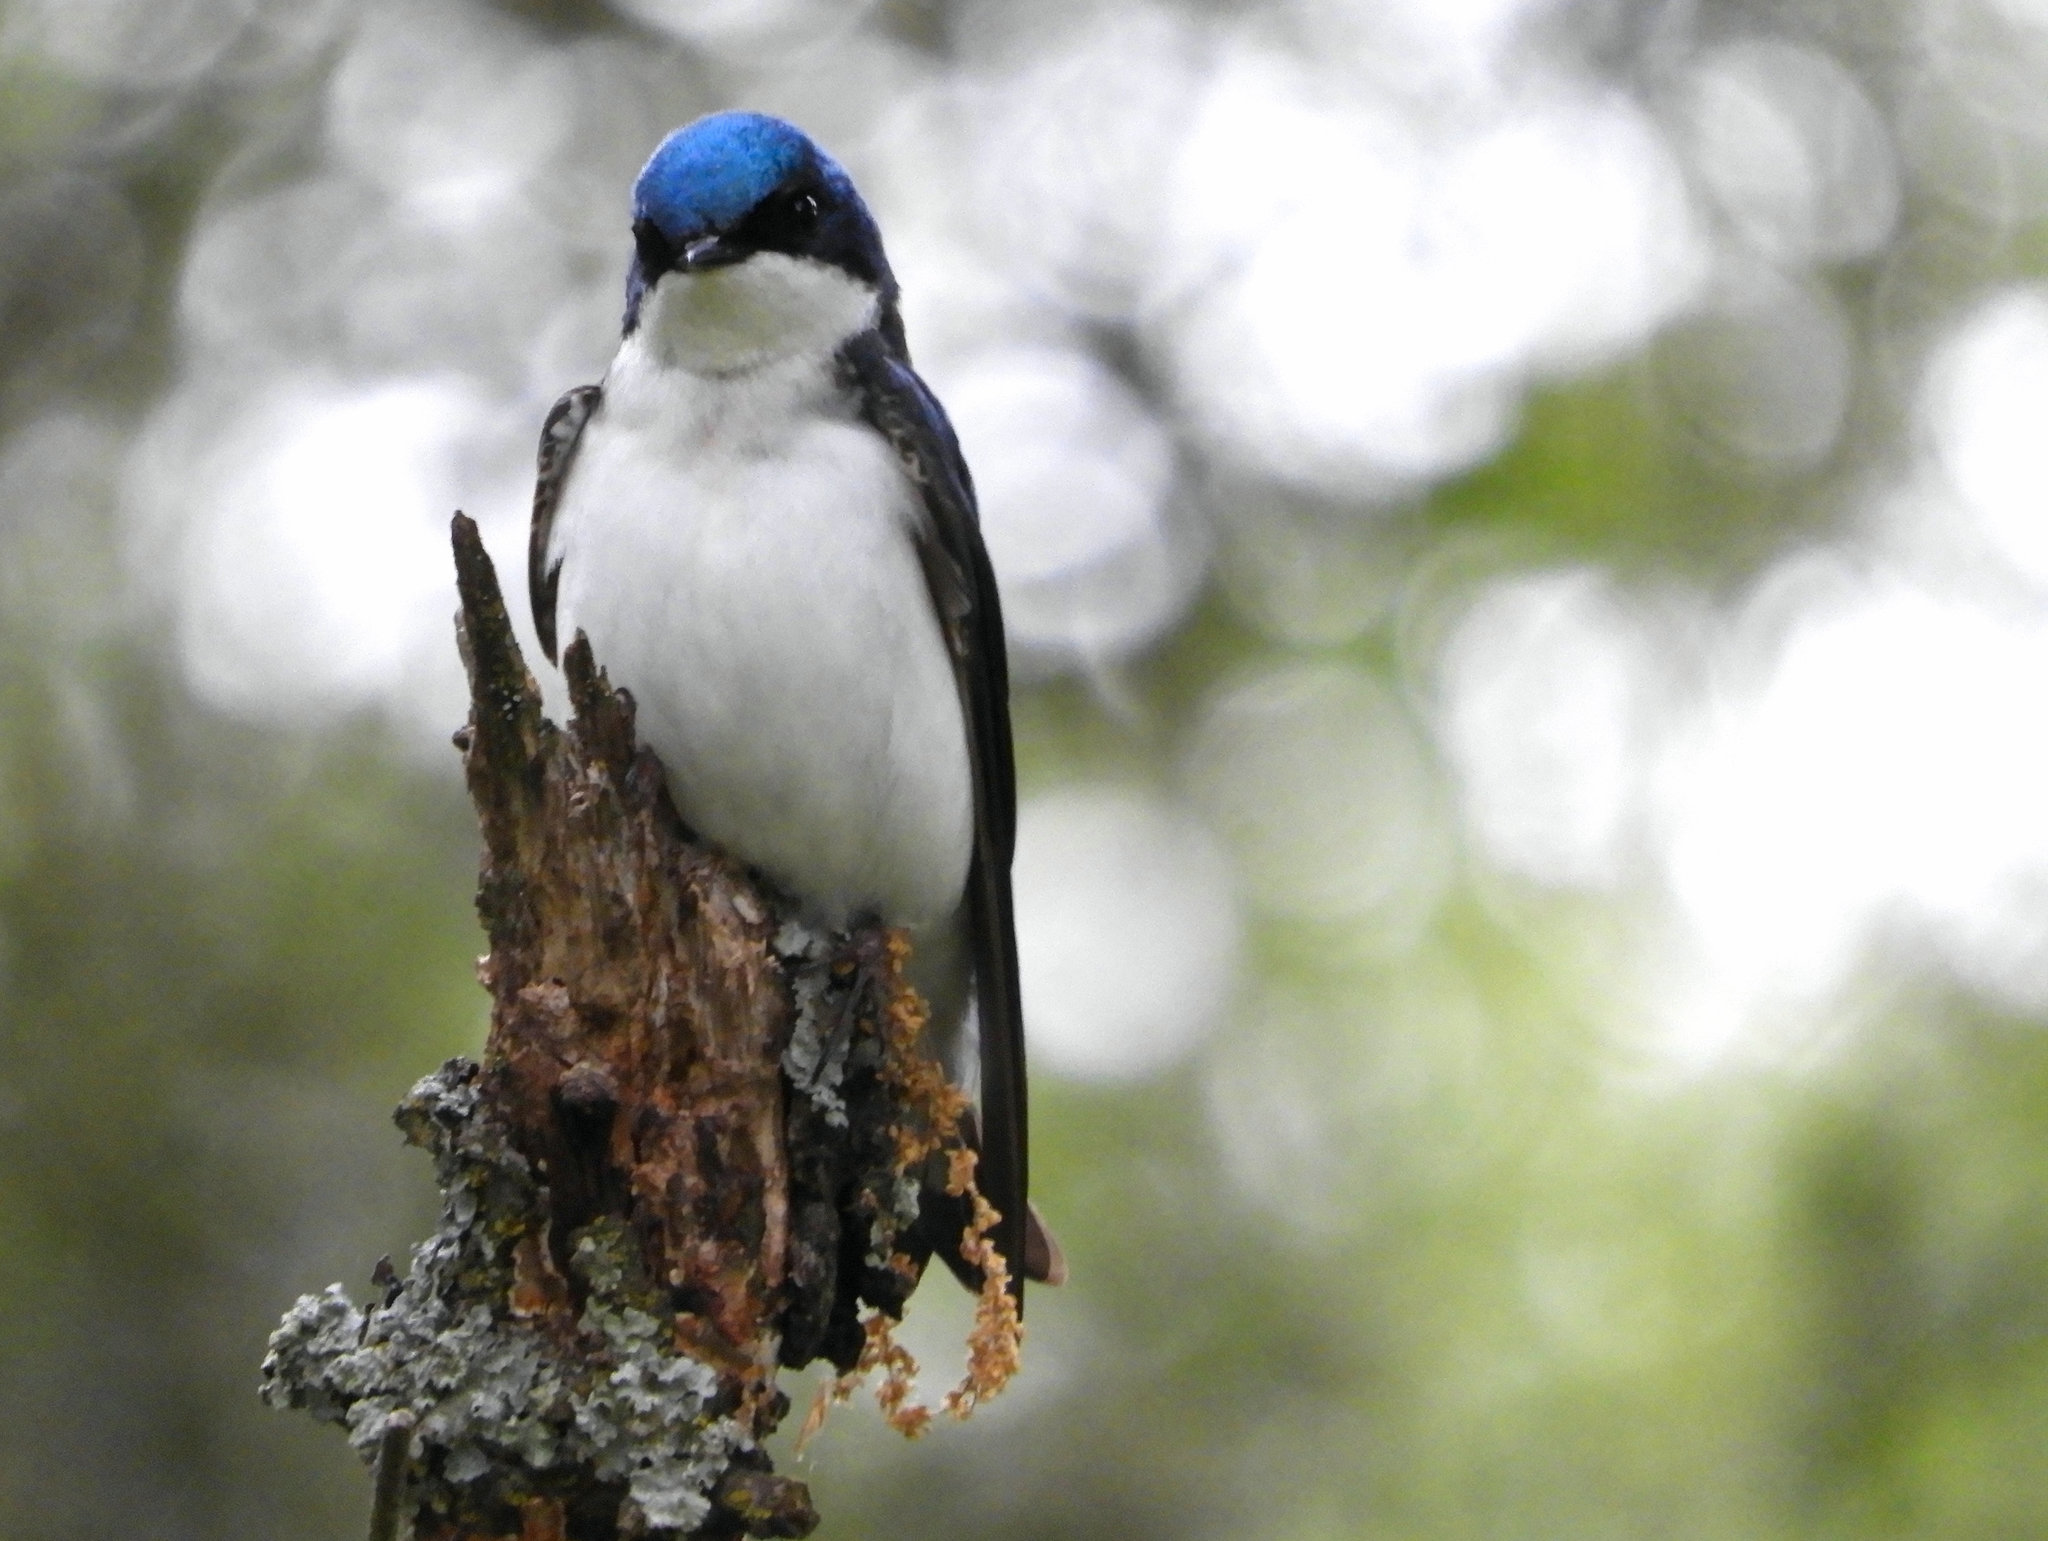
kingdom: Animalia
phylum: Chordata
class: Aves
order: Passeriformes
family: Hirundinidae
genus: Tachycineta
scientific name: Tachycineta bicolor
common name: Tree swallow
